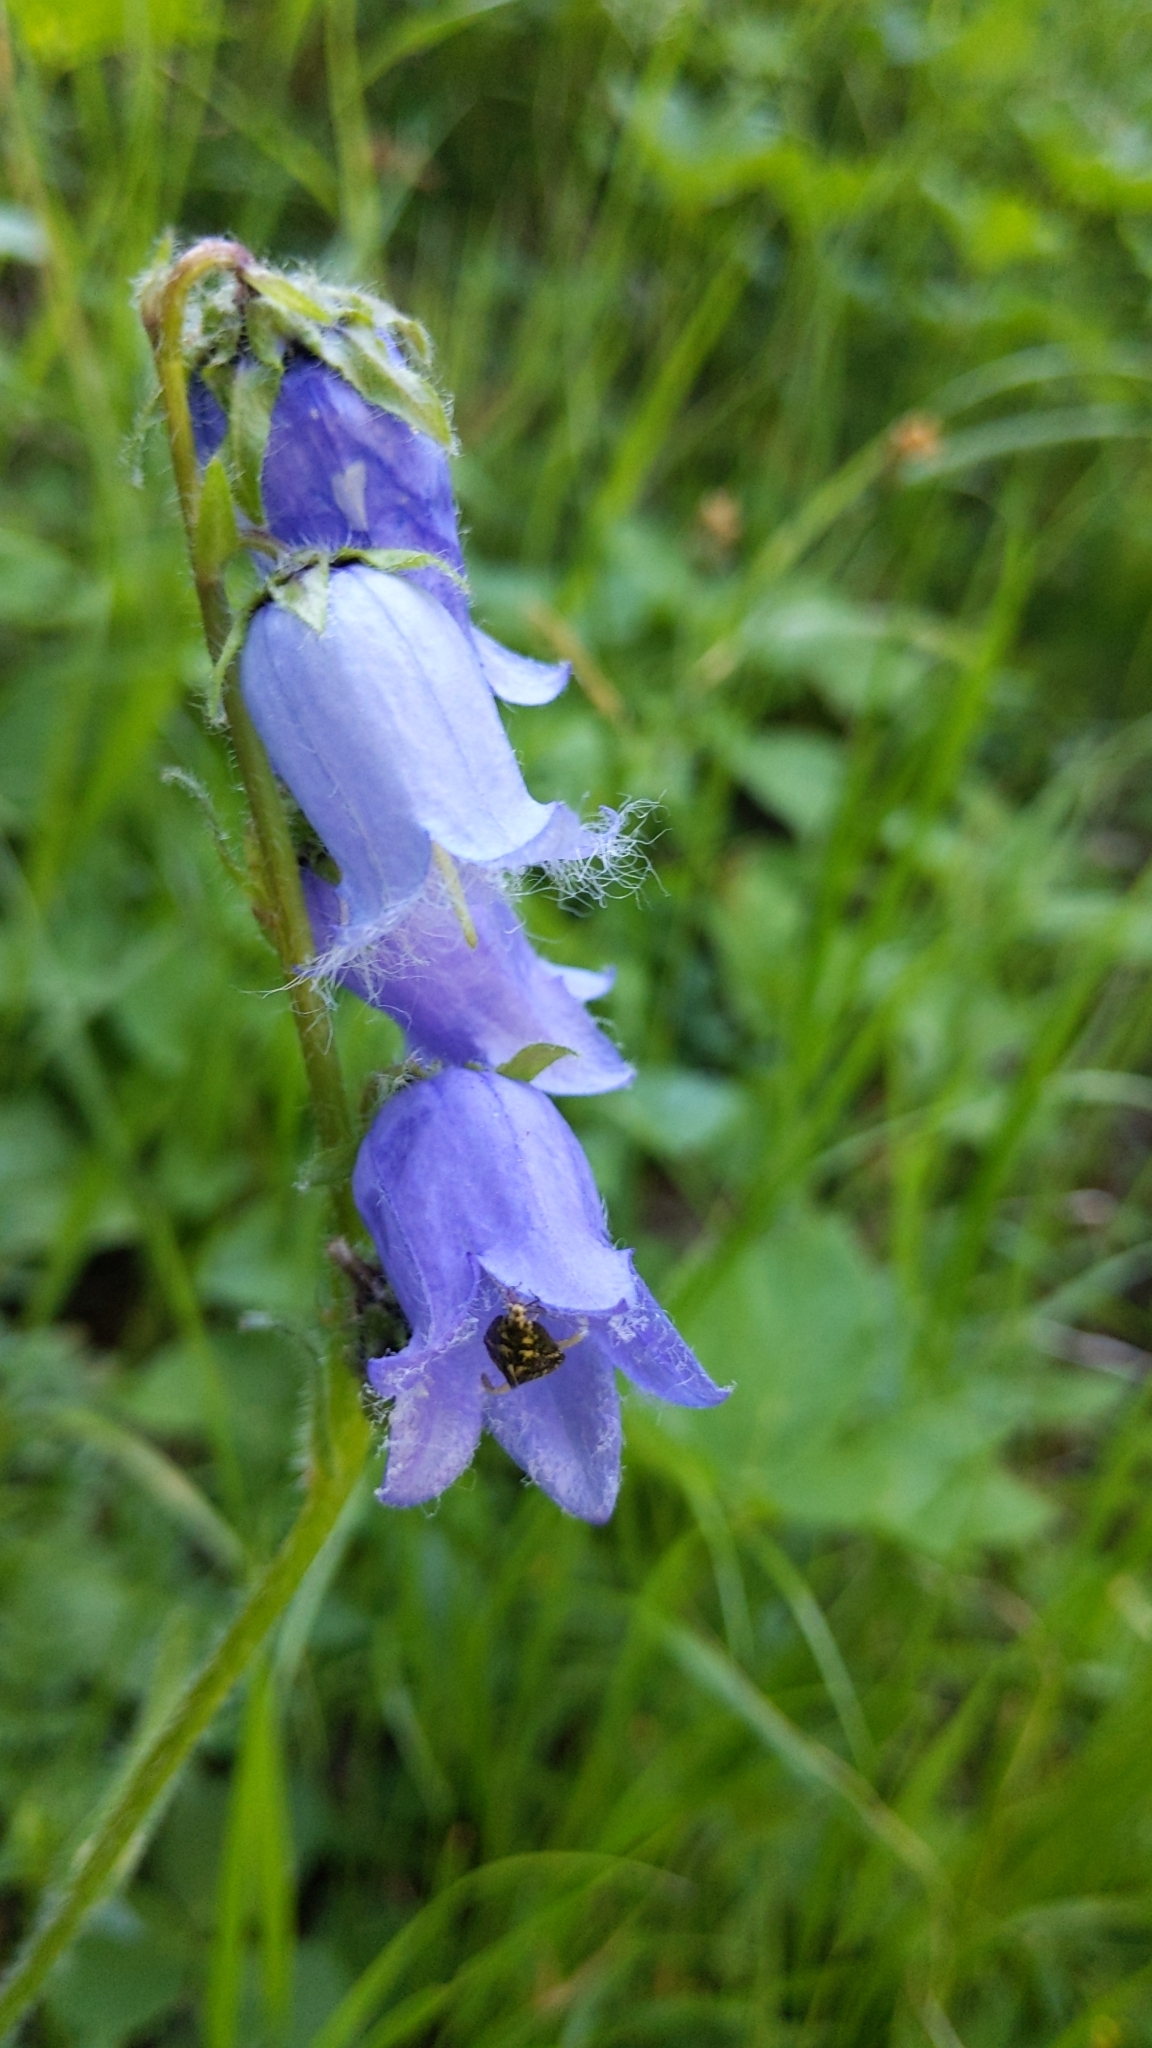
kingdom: Plantae
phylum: Tracheophyta
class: Magnoliopsida
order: Asterales
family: Campanulaceae
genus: Campanula
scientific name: Campanula barbata
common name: Bearded bellflower
